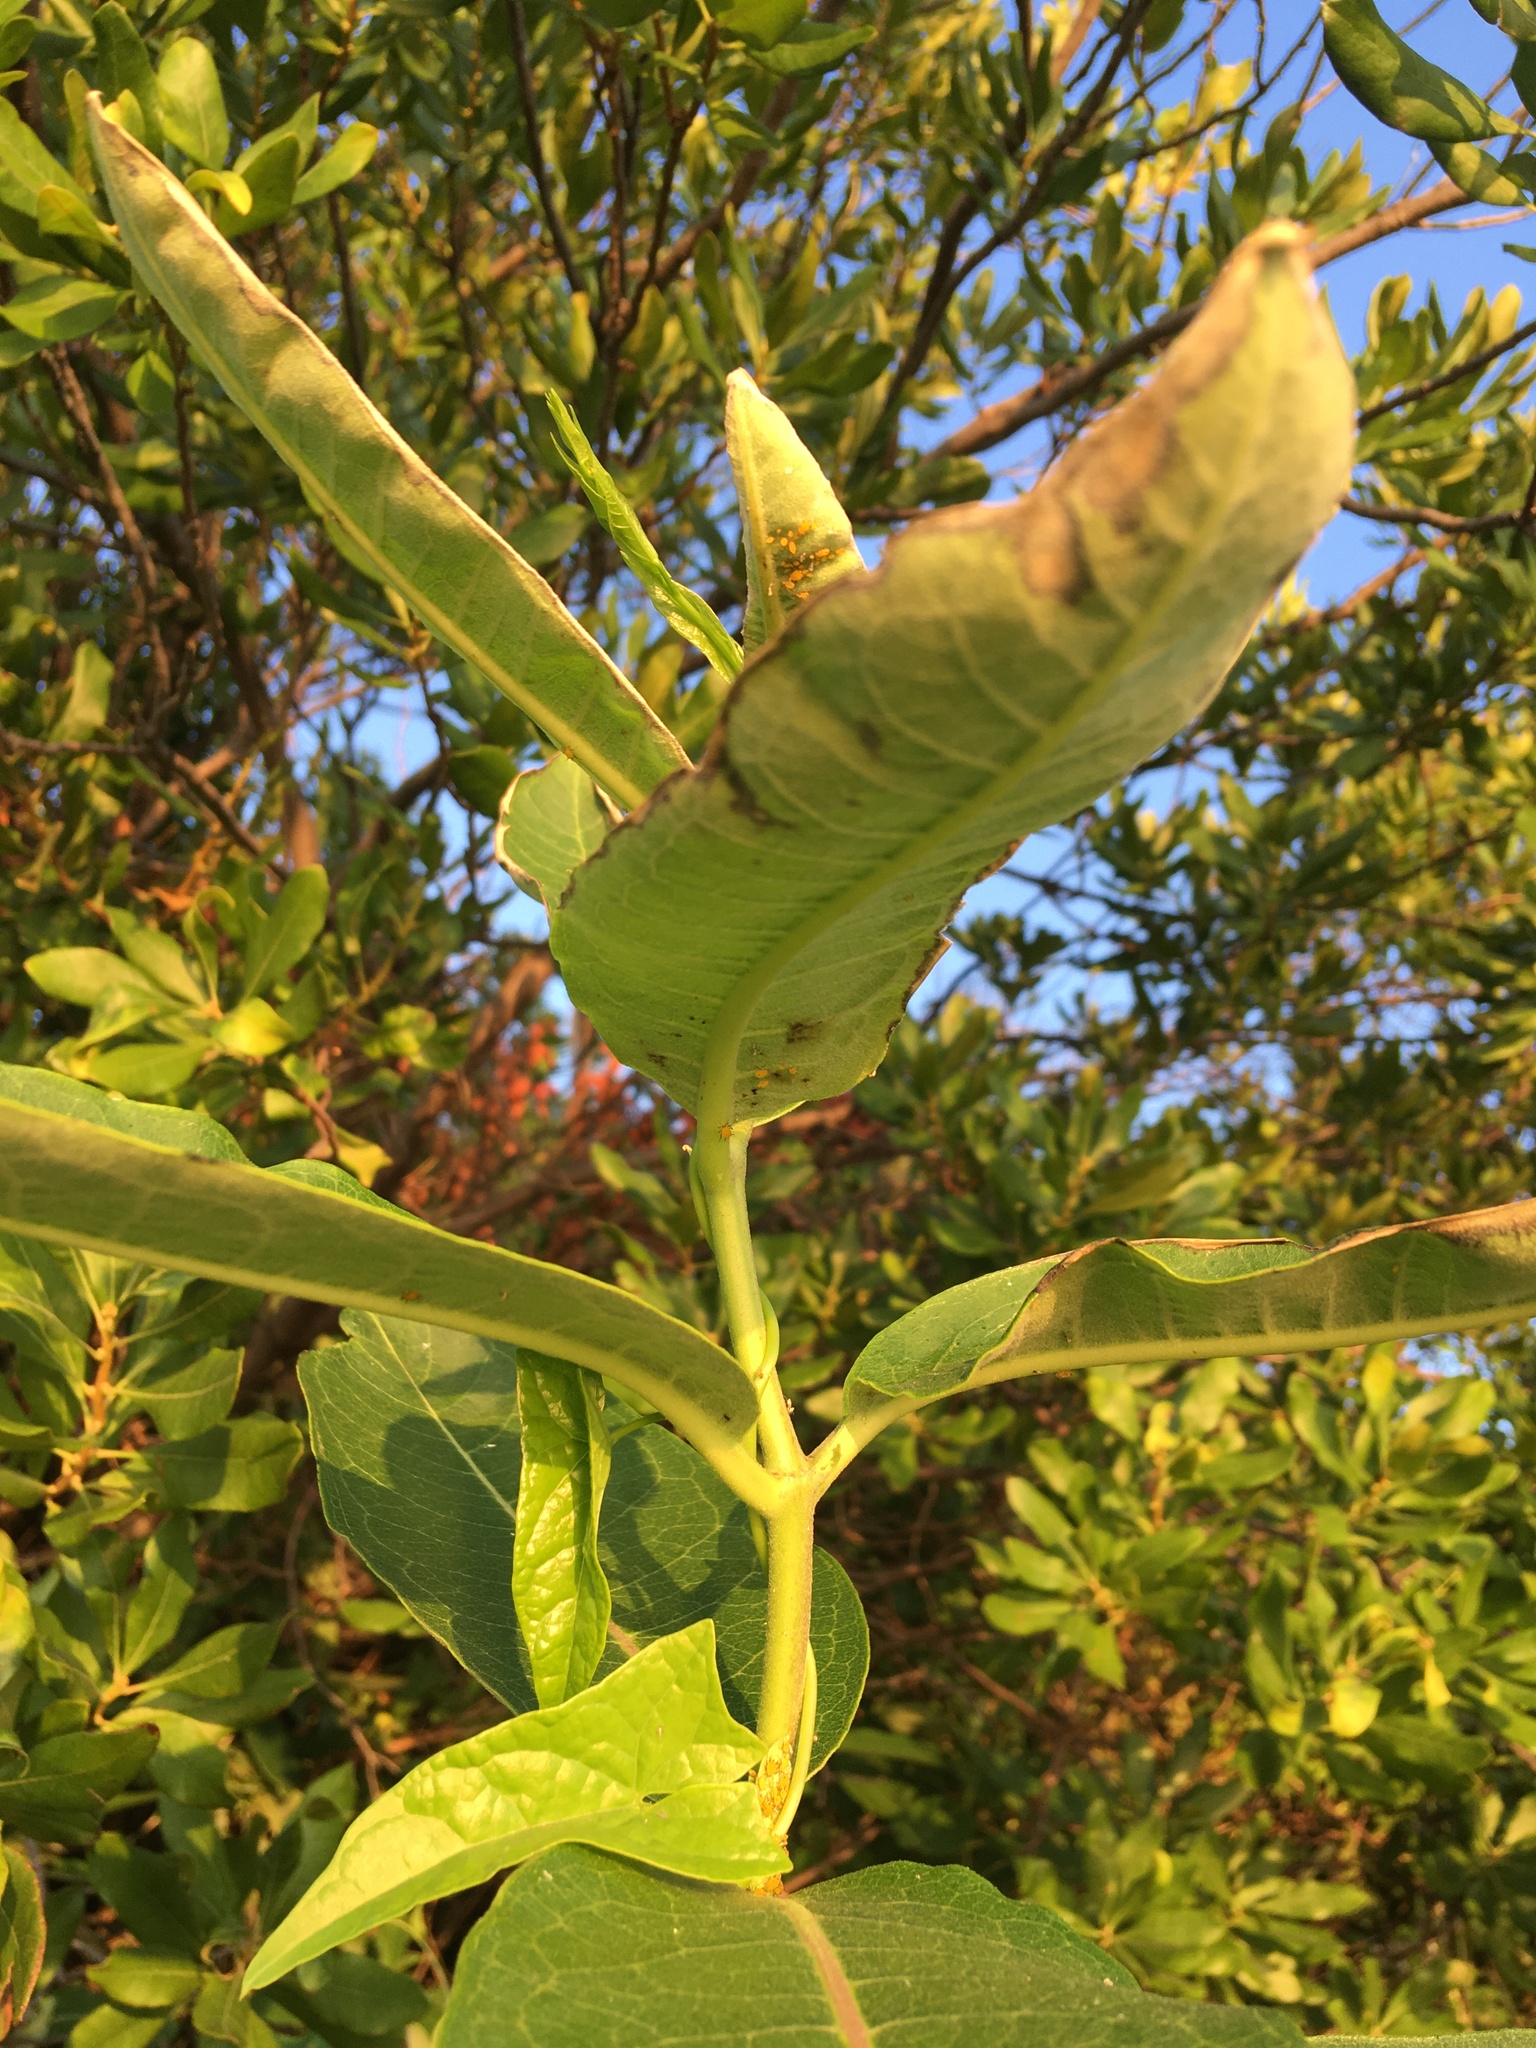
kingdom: Plantae
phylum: Tracheophyta
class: Magnoliopsida
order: Gentianales
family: Apocynaceae
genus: Asclepias
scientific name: Asclepias syriaca
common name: Common milkweed
